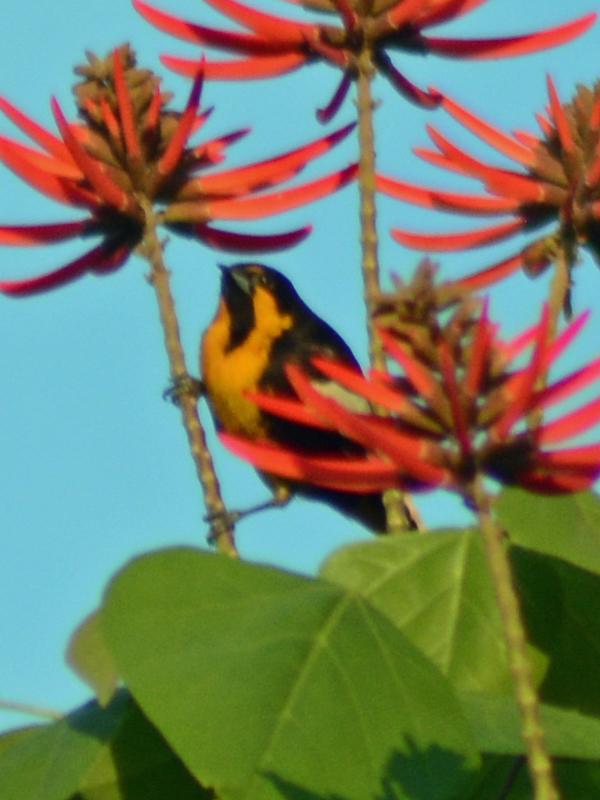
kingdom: Animalia
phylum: Chordata
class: Aves
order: Passeriformes
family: Icteridae
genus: Icterus
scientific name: Icterus abeillei
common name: Black-backed oriole
